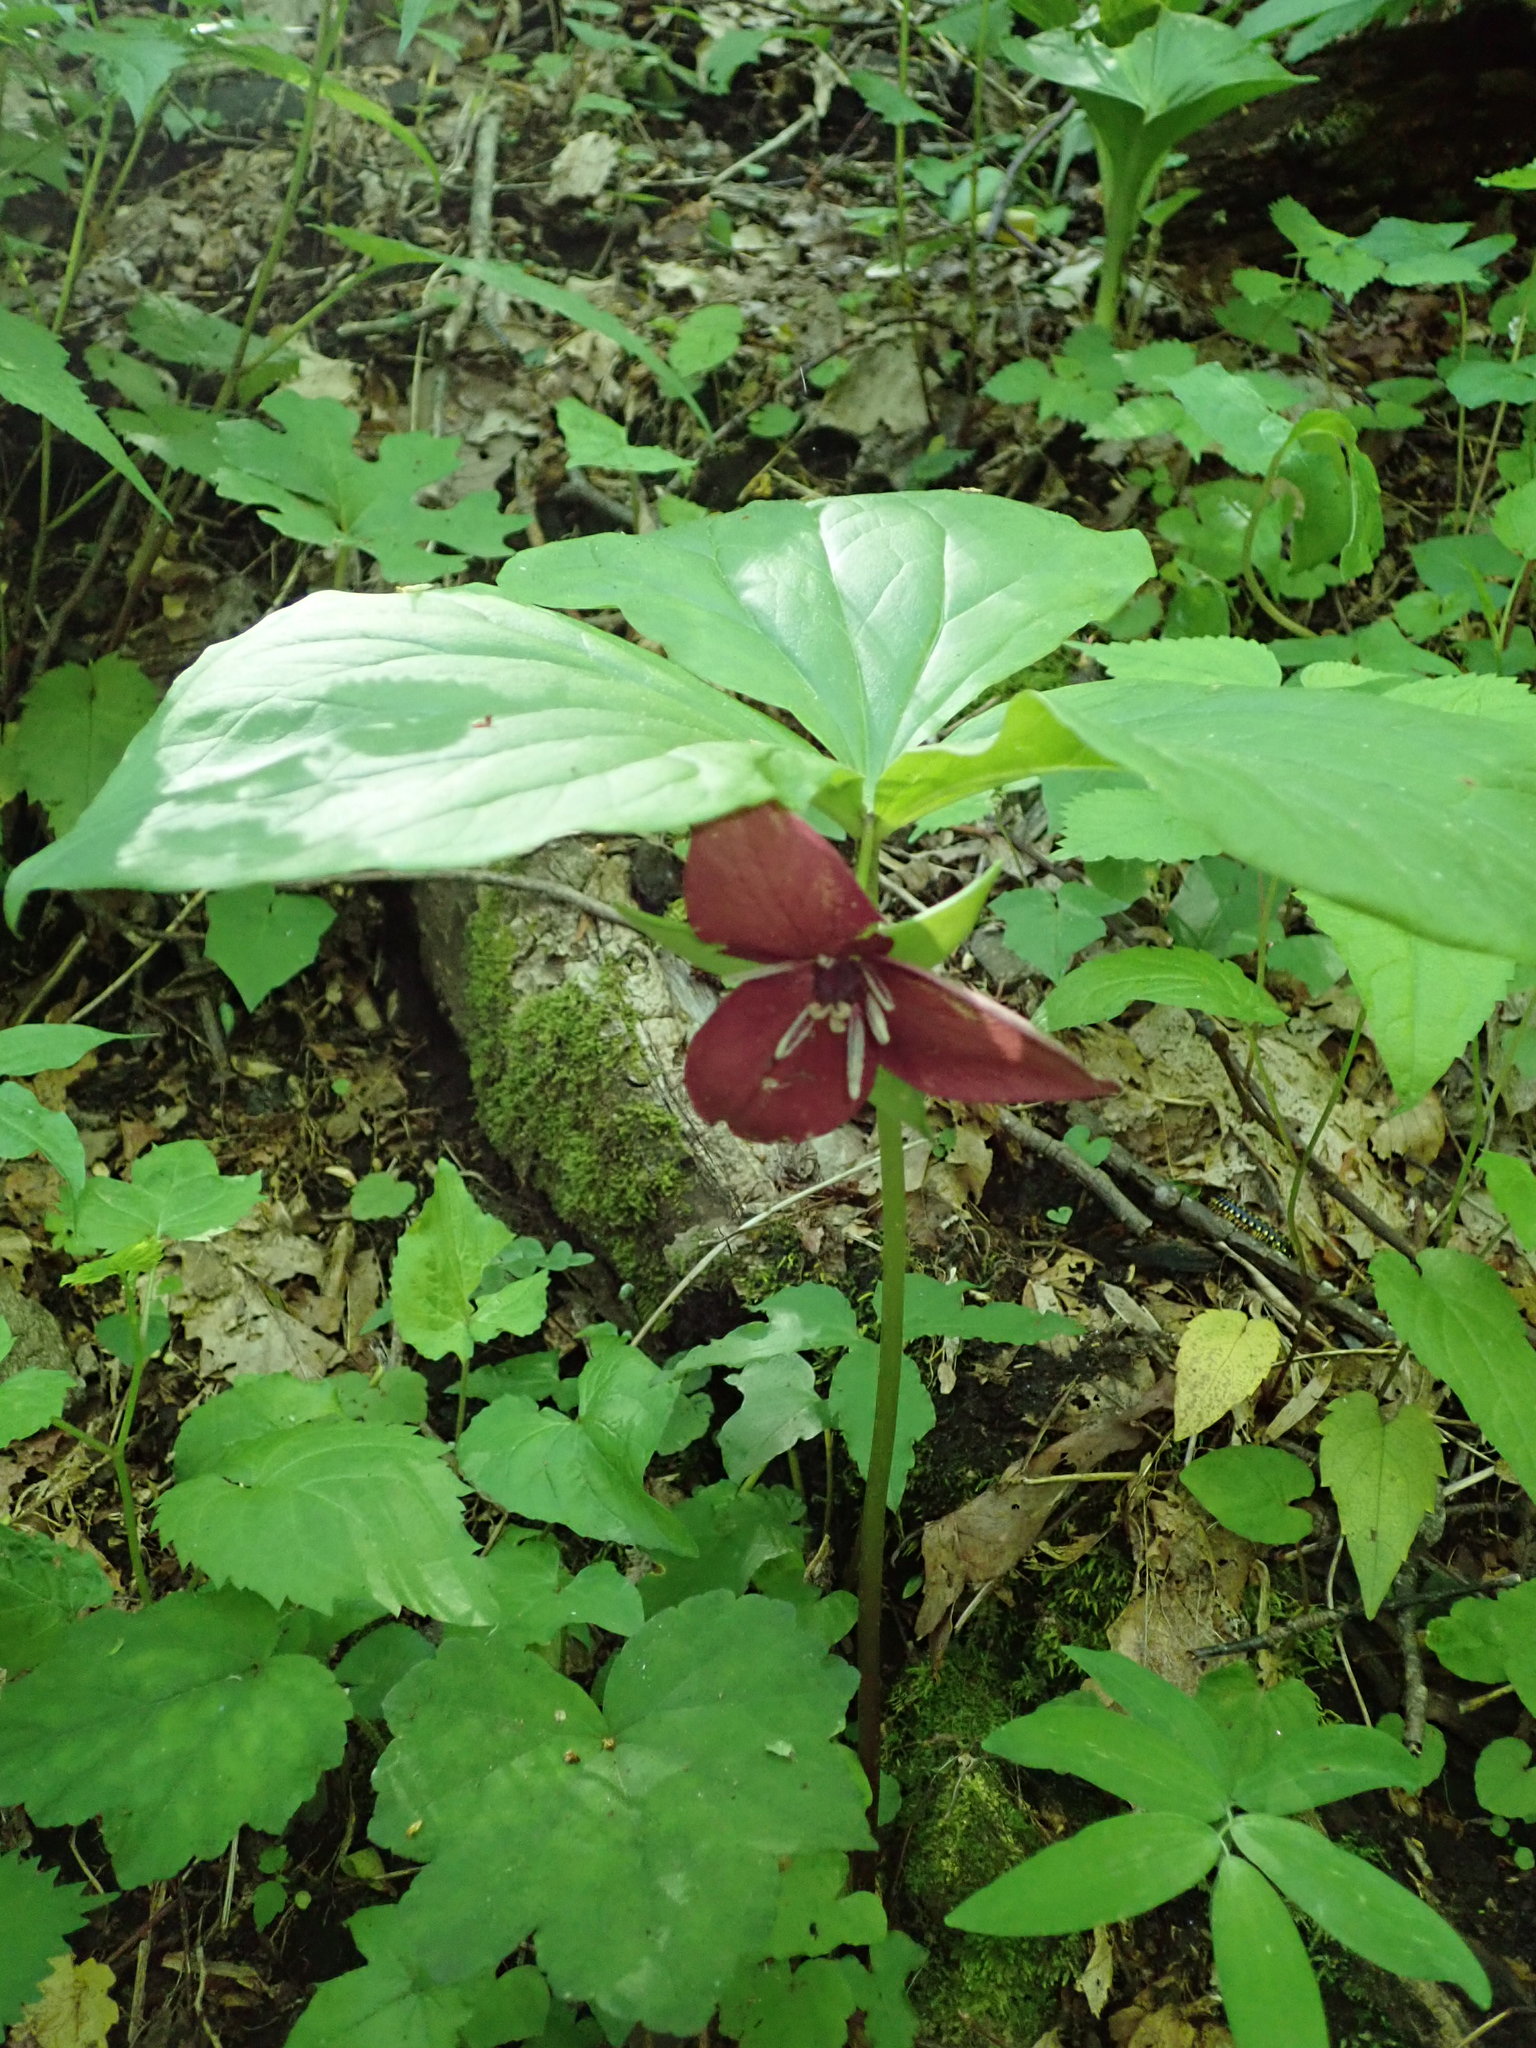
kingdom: Plantae
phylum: Tracheophyta
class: Liliopsida
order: Liliales
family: Melanthiaceae
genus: Trillium
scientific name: Trillium vaseyi
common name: Sweet trillium
